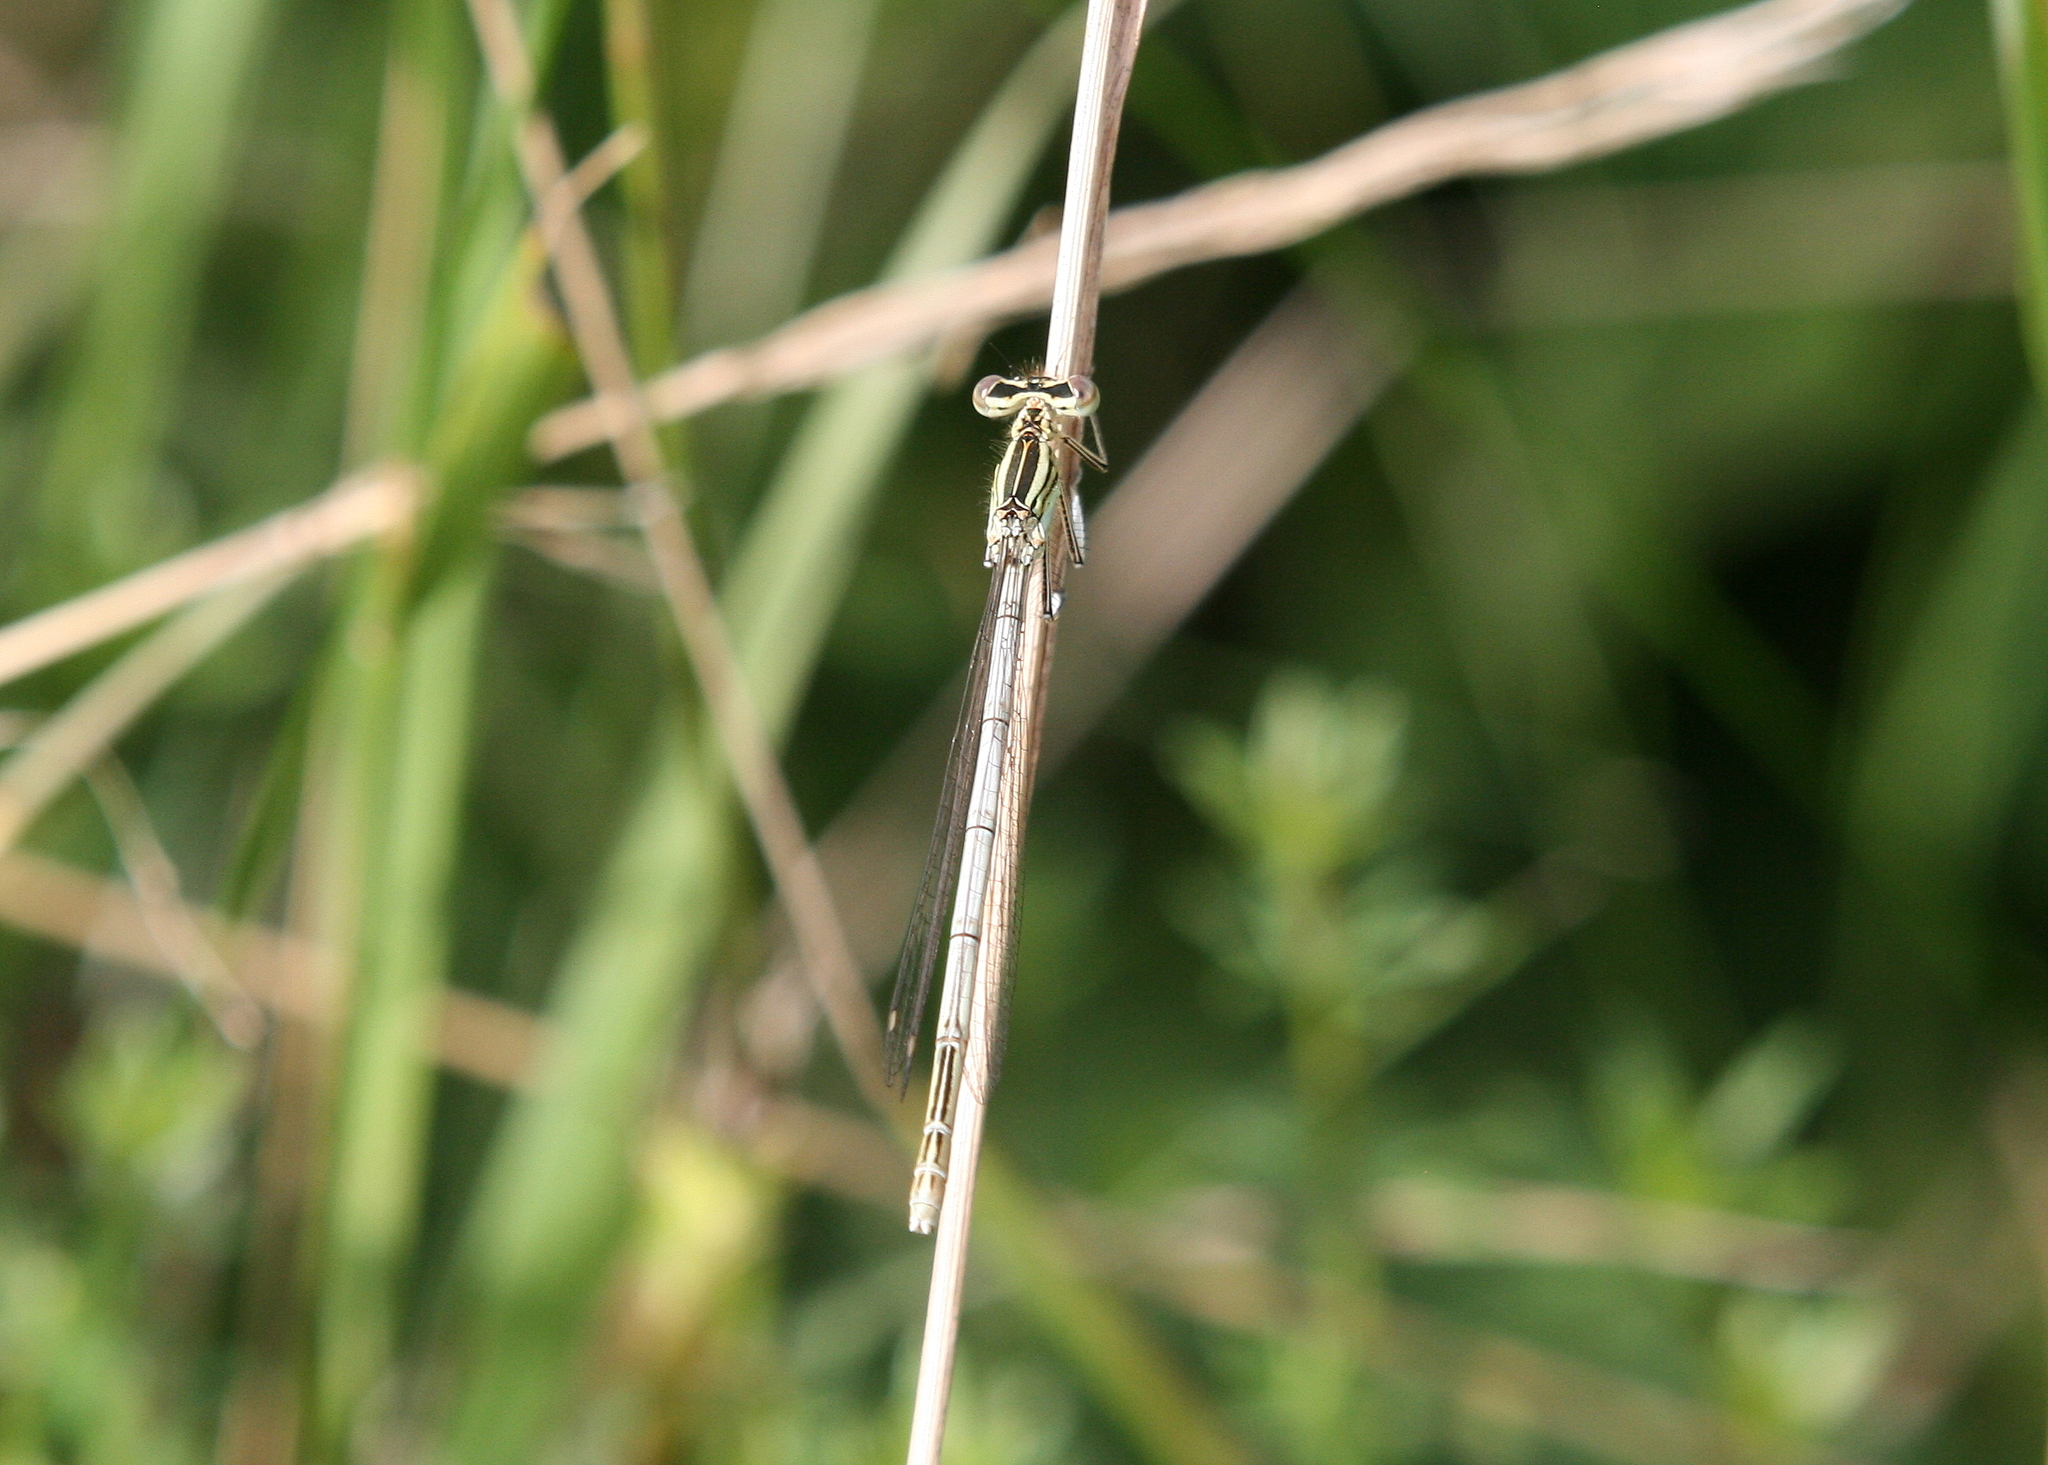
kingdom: Animalia
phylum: Arthropoda
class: Insecta
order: Odonata
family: Platycnemididae
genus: Platycnemis
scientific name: Platycnemis pennipes
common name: White-legged damselfly
